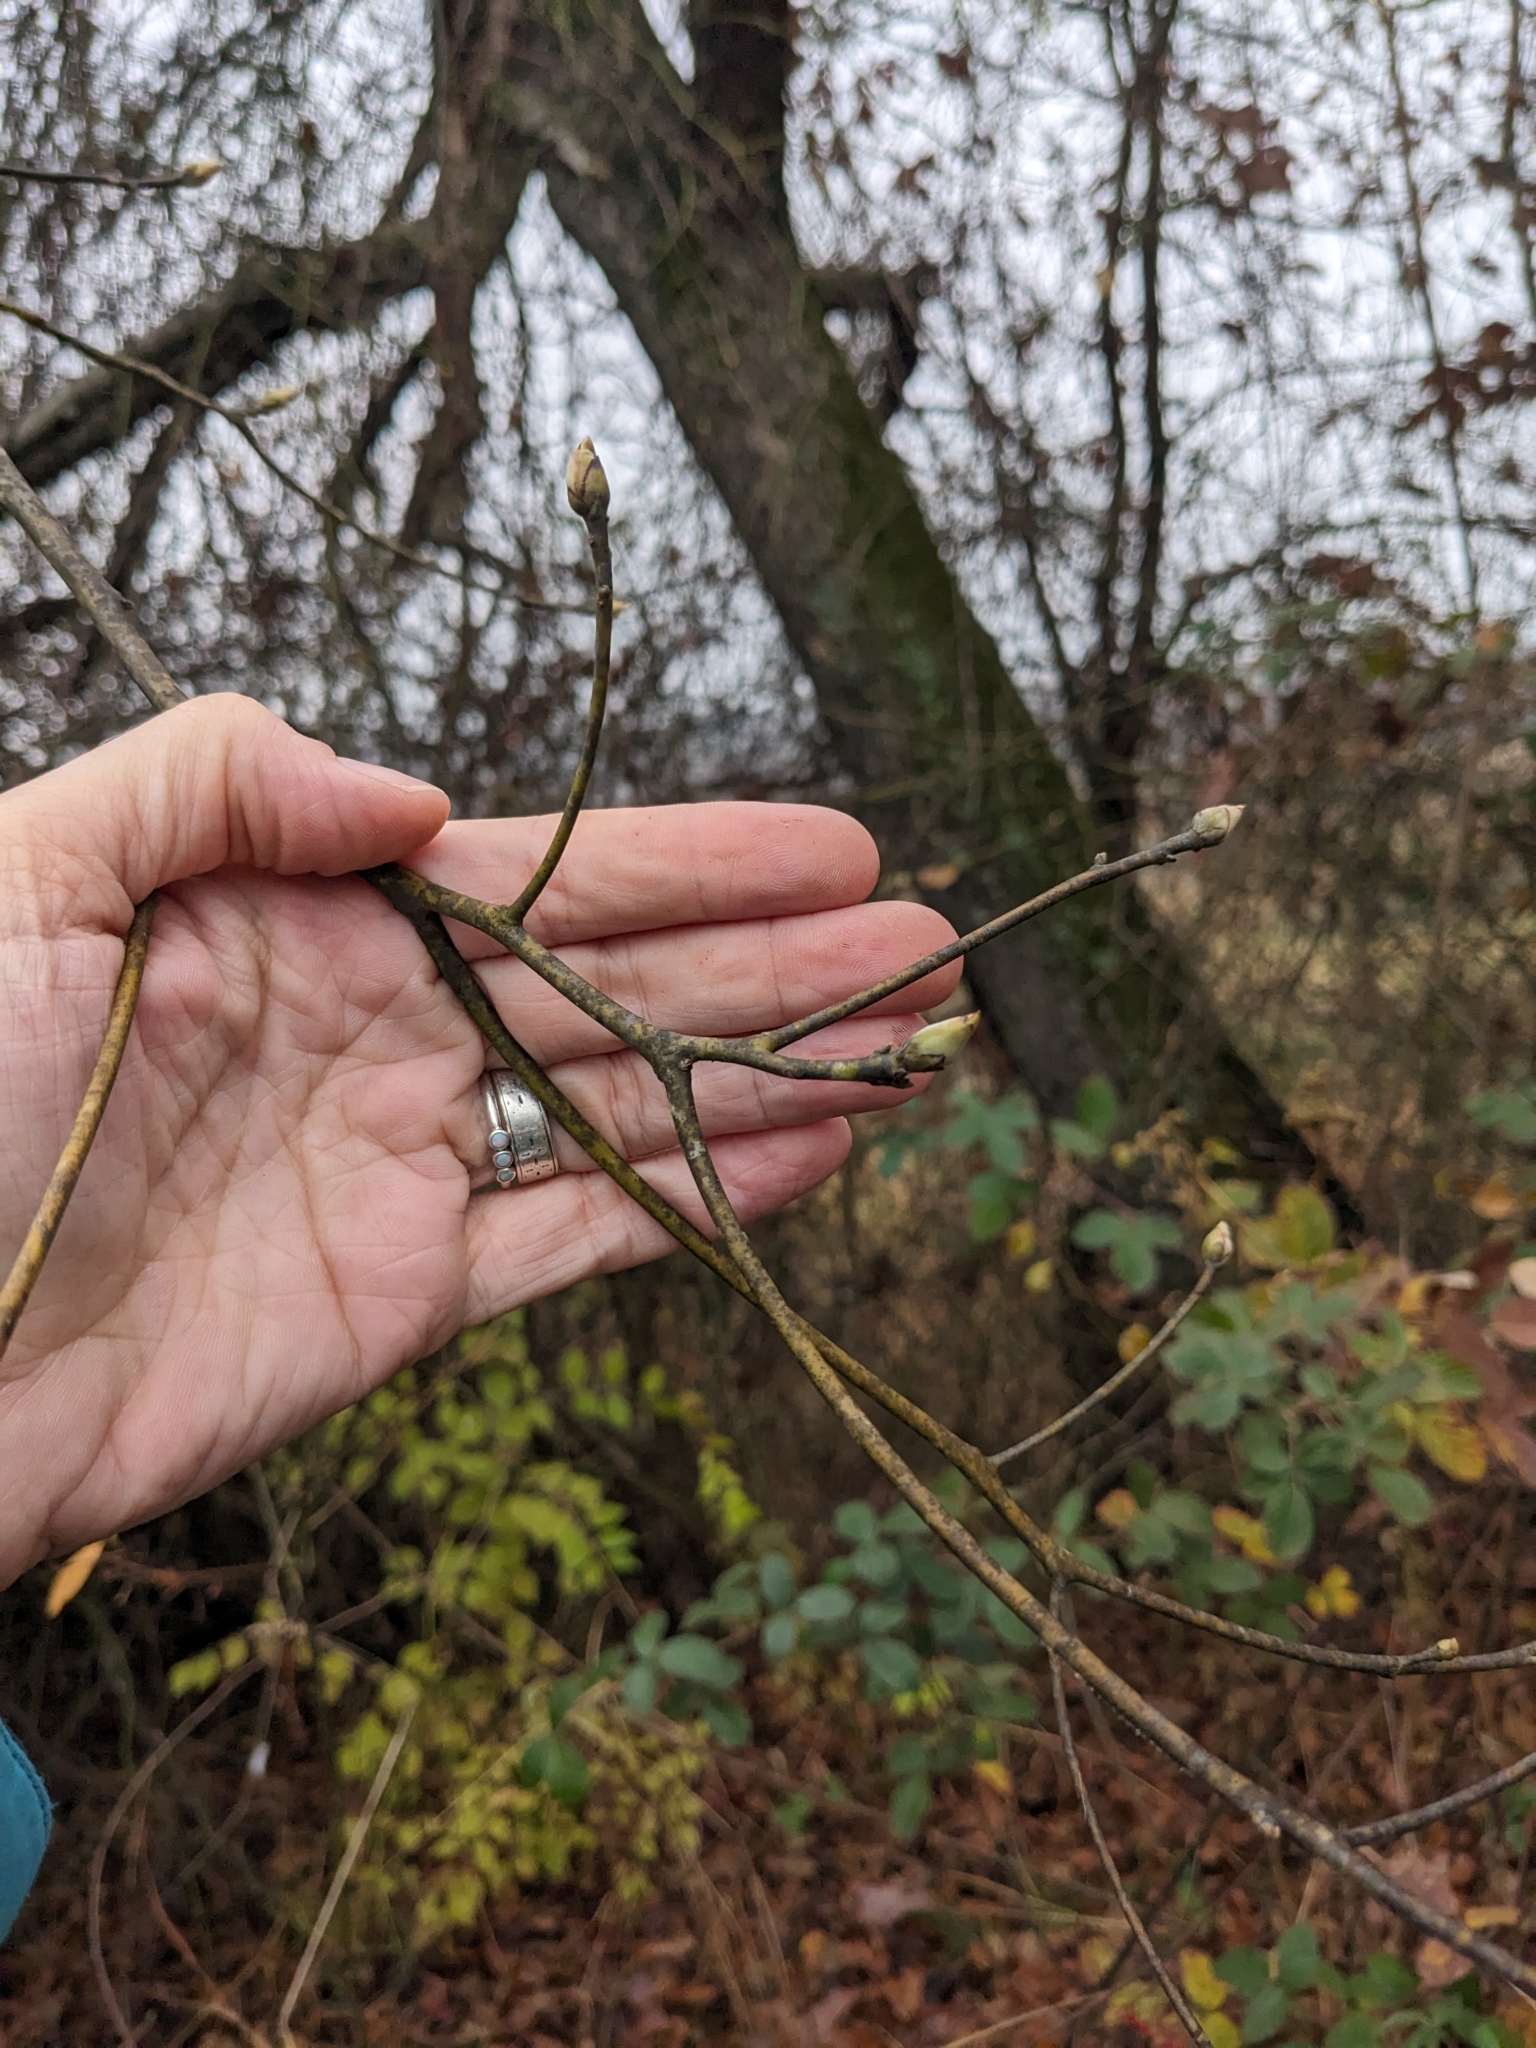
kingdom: Plantae
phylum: Tracheophyta
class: Magnoliopsida
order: Laurales
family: Lauraceae
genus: Sassafras
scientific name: Sassafras albidum
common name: Sassafras
